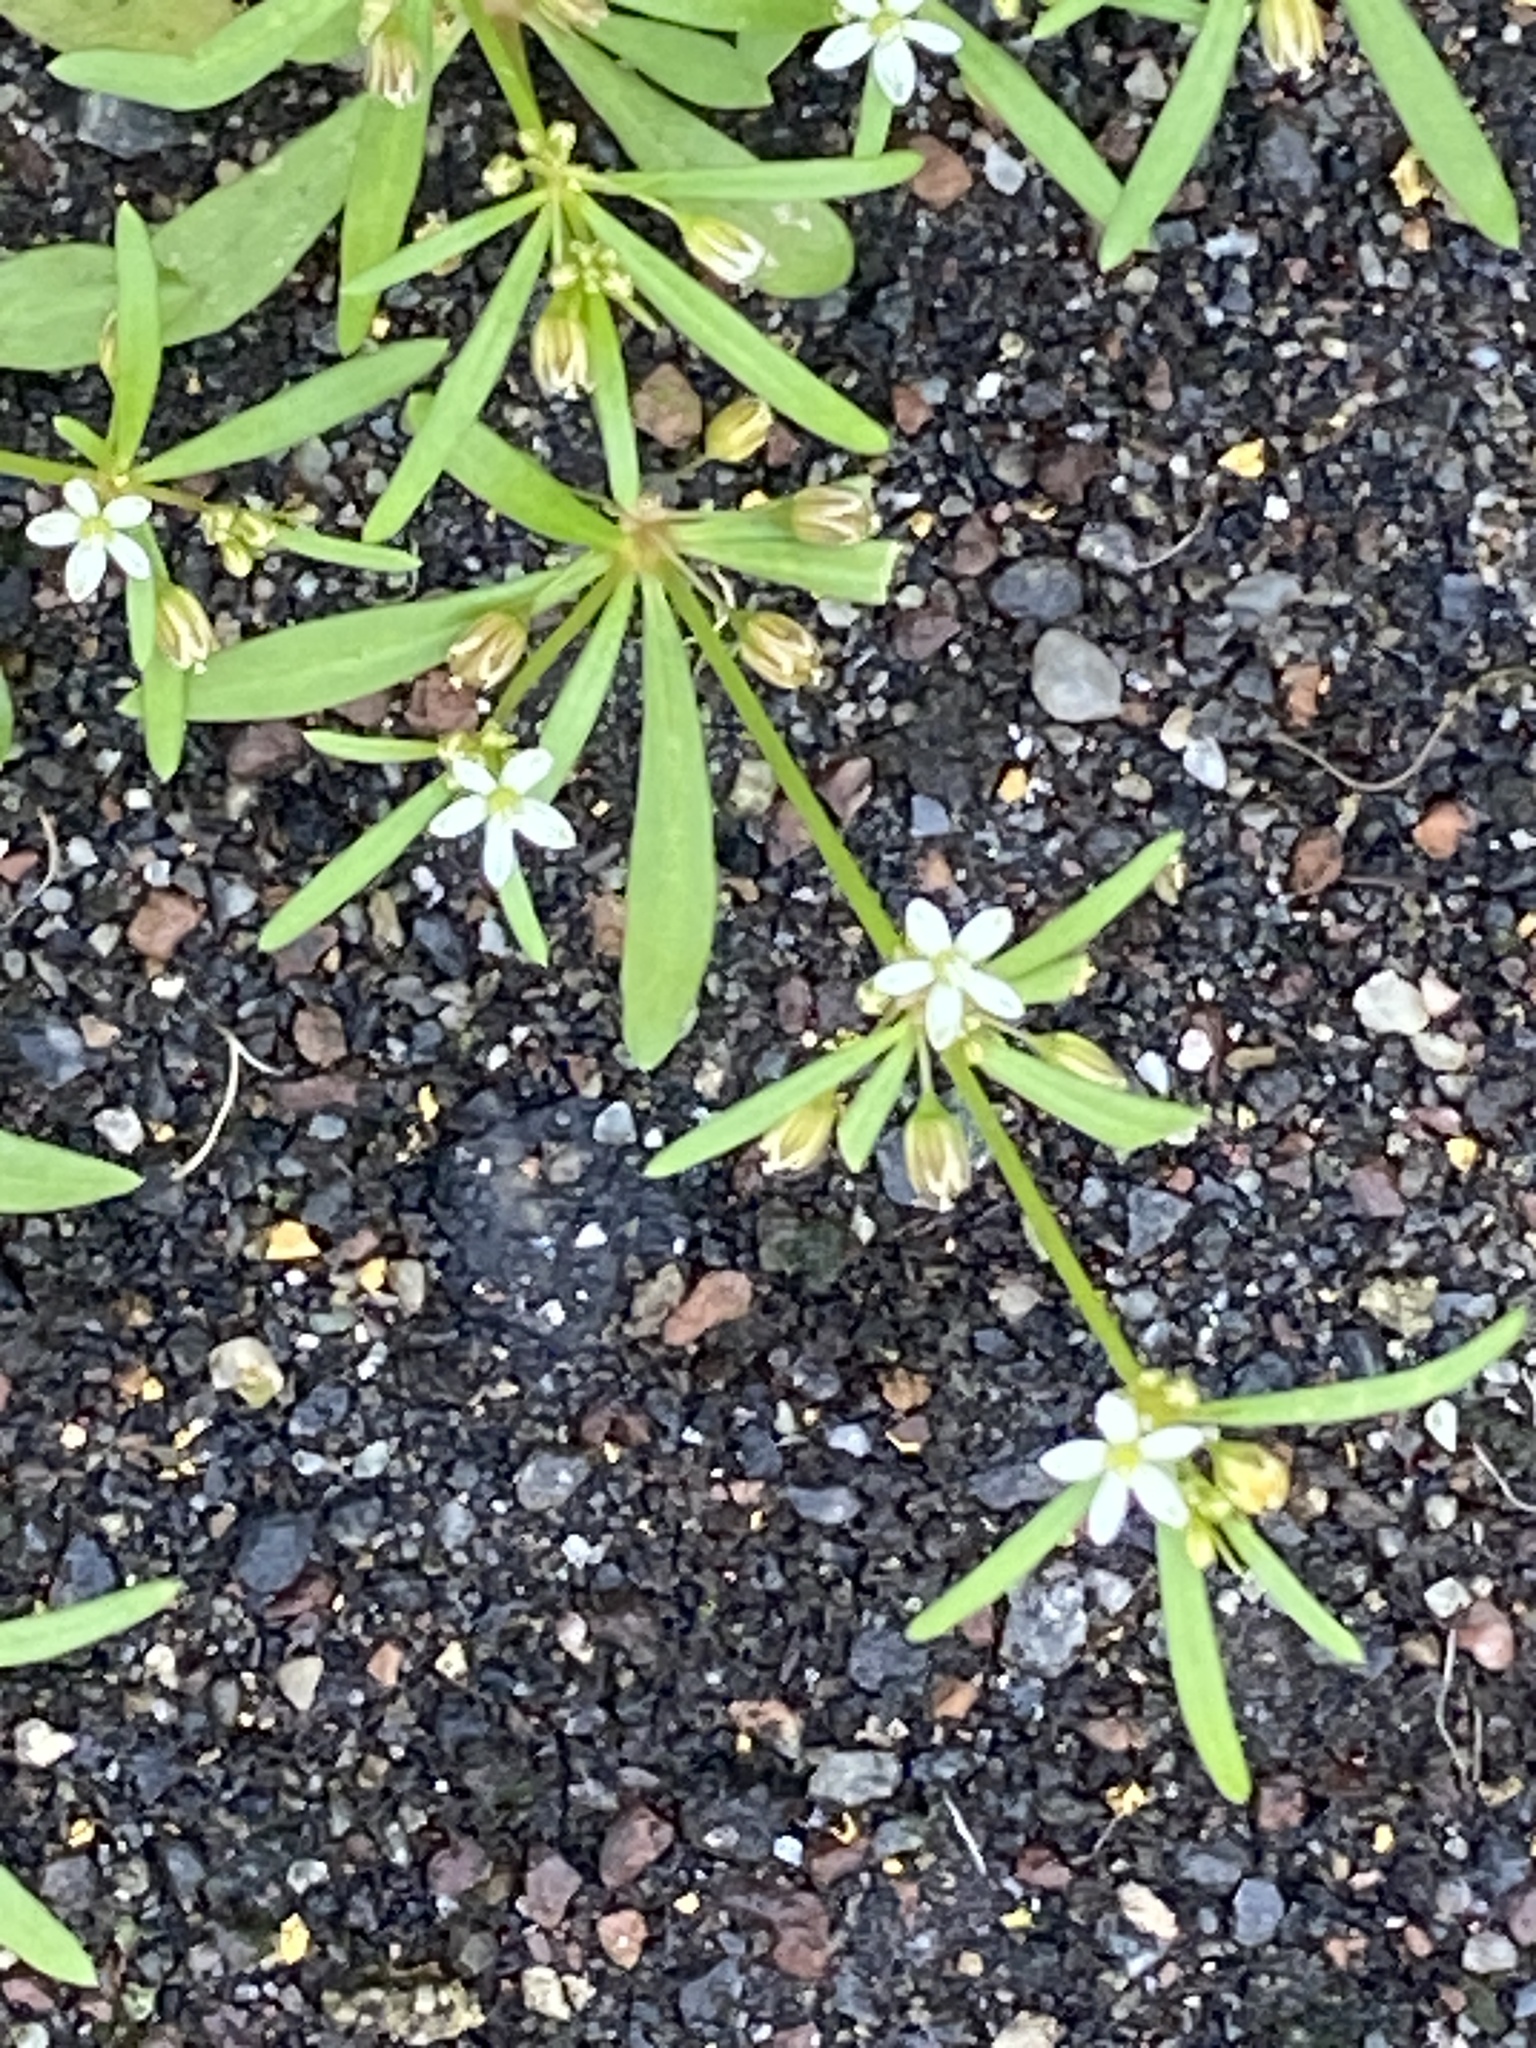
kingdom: Plantae
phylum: Tracheophyta
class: Magnoliopsida
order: Caryophyllales
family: Molluginaceae
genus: Mollugo
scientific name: Mollugo verticillata
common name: Green carpetweed
